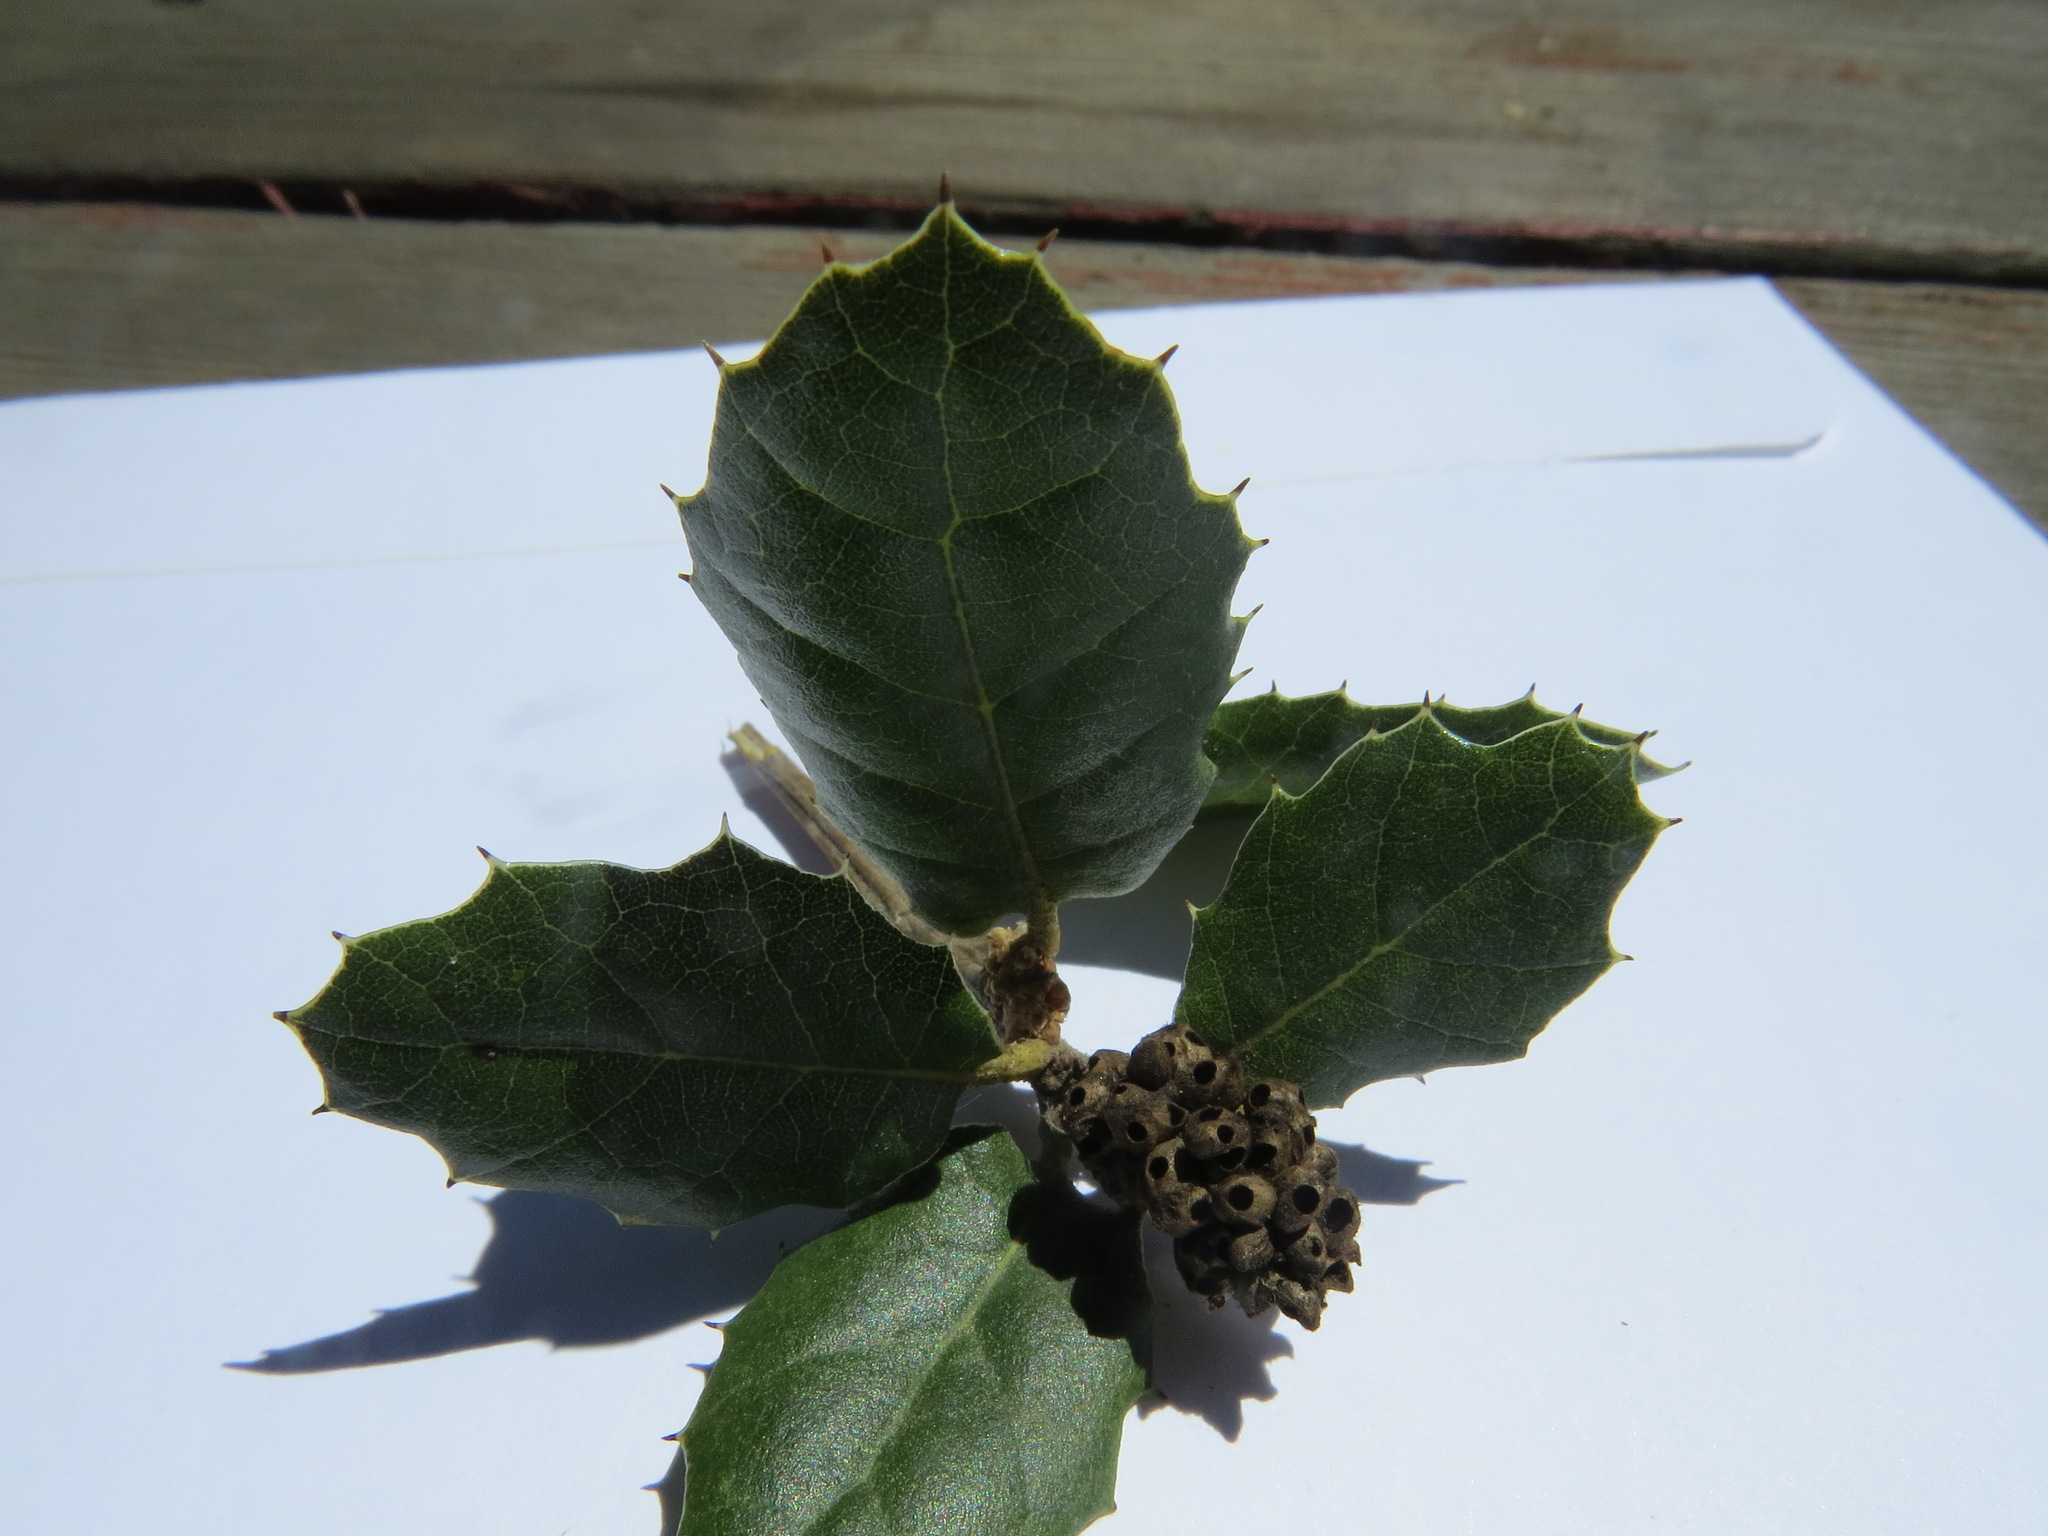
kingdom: Animalia
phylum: Arthropoda
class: Insecta
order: Hymenoptera
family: Cynipidae
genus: Callirhytis
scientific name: Callirhytis
